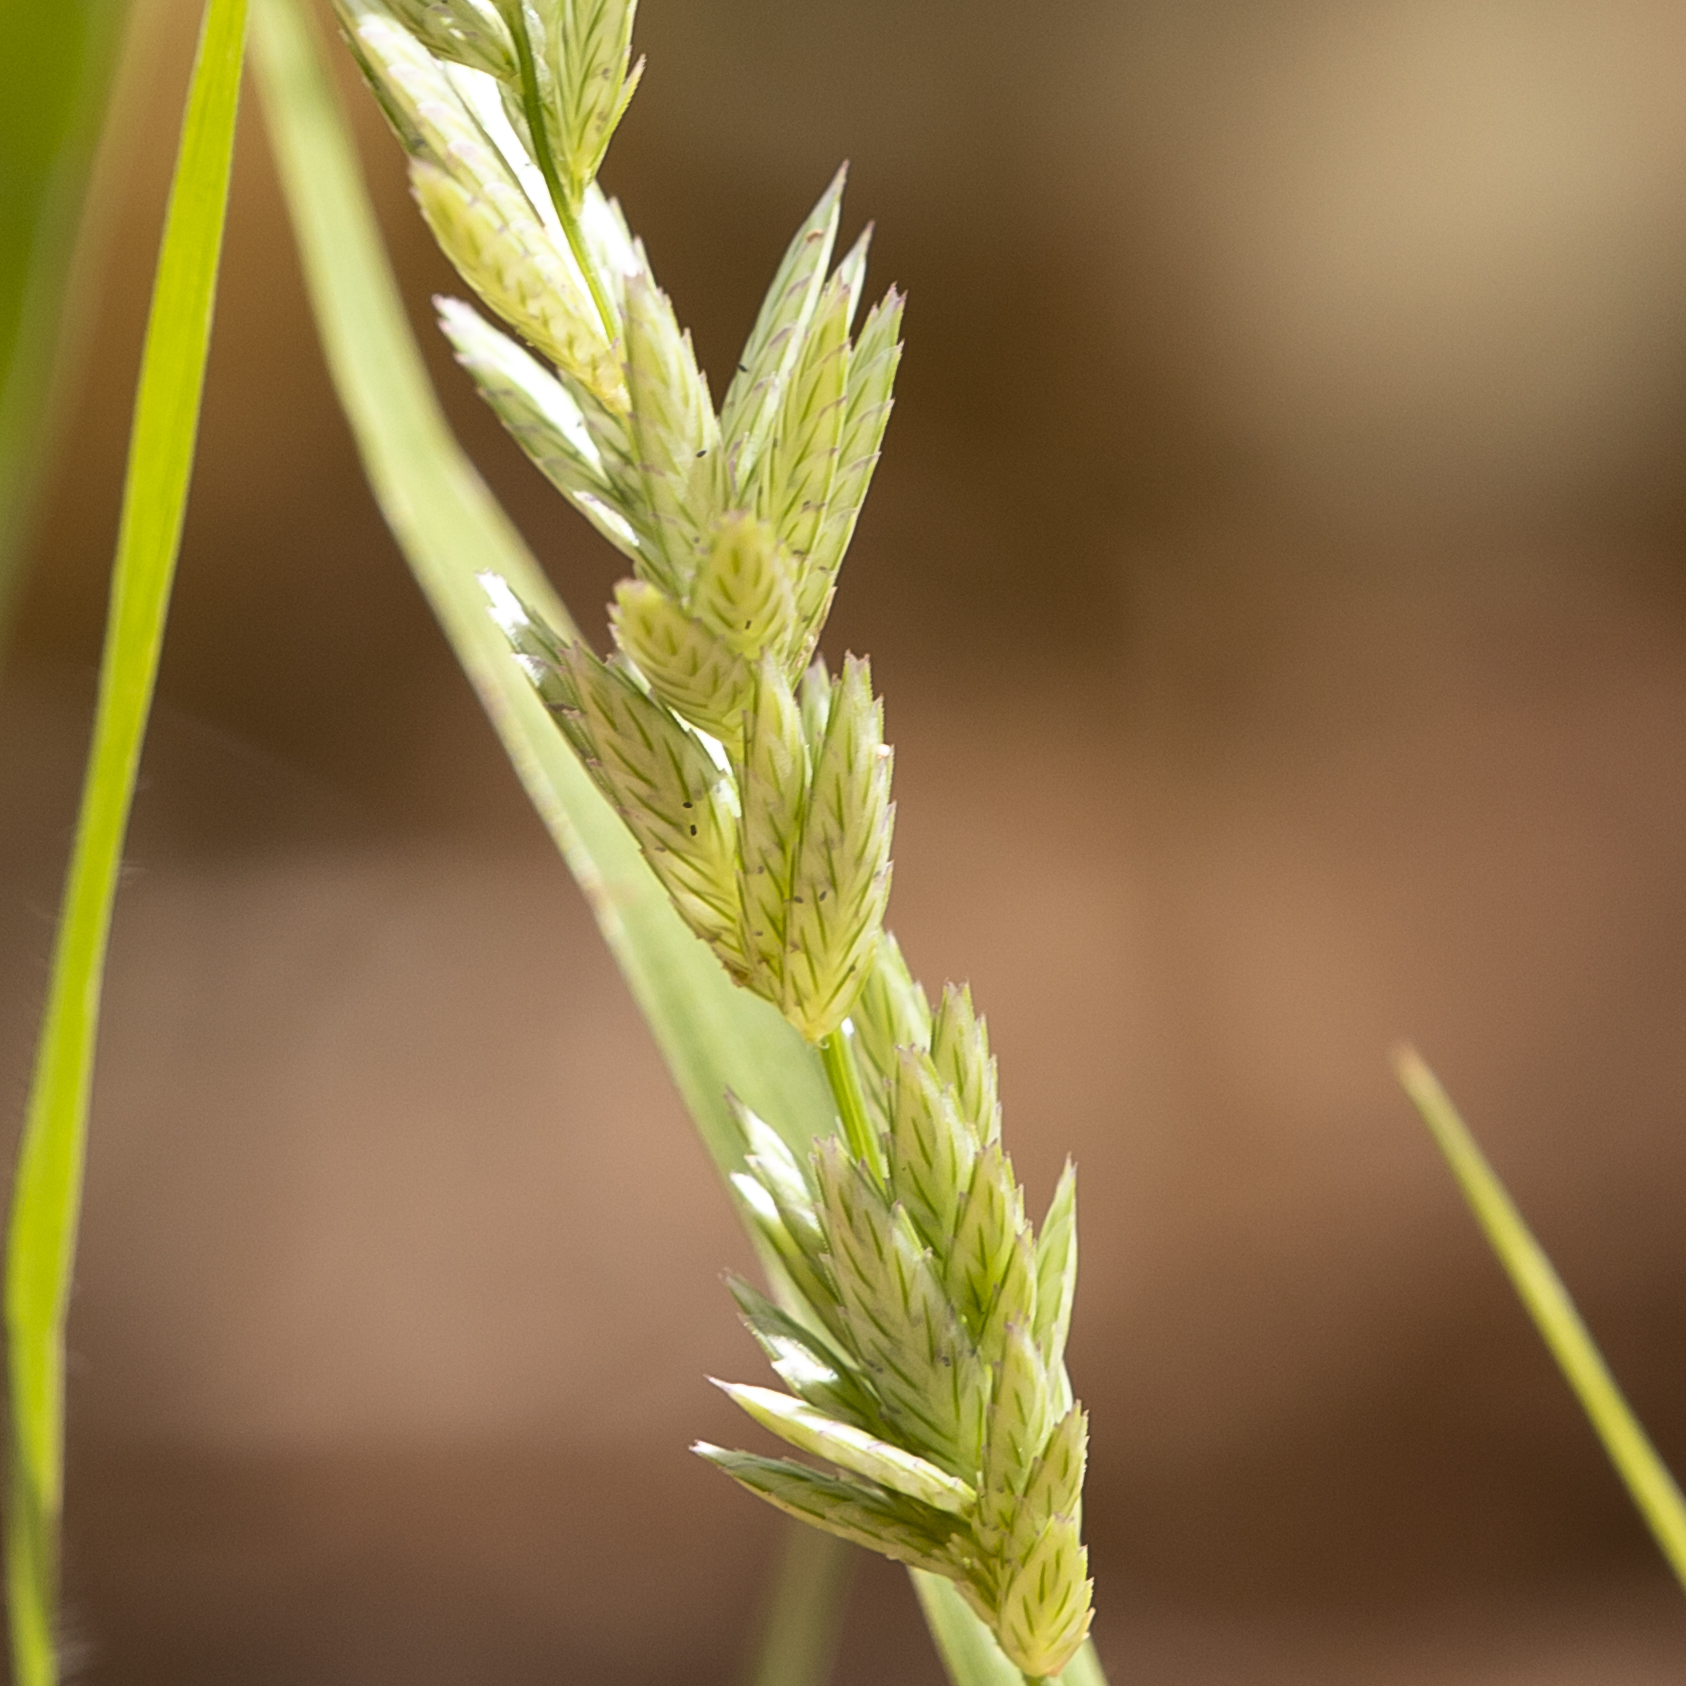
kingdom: Plantae
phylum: Tracheophyta
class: Liliopsida
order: Poales
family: Poaceae
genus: Eragrostis
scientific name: Eragrostis speciosa
